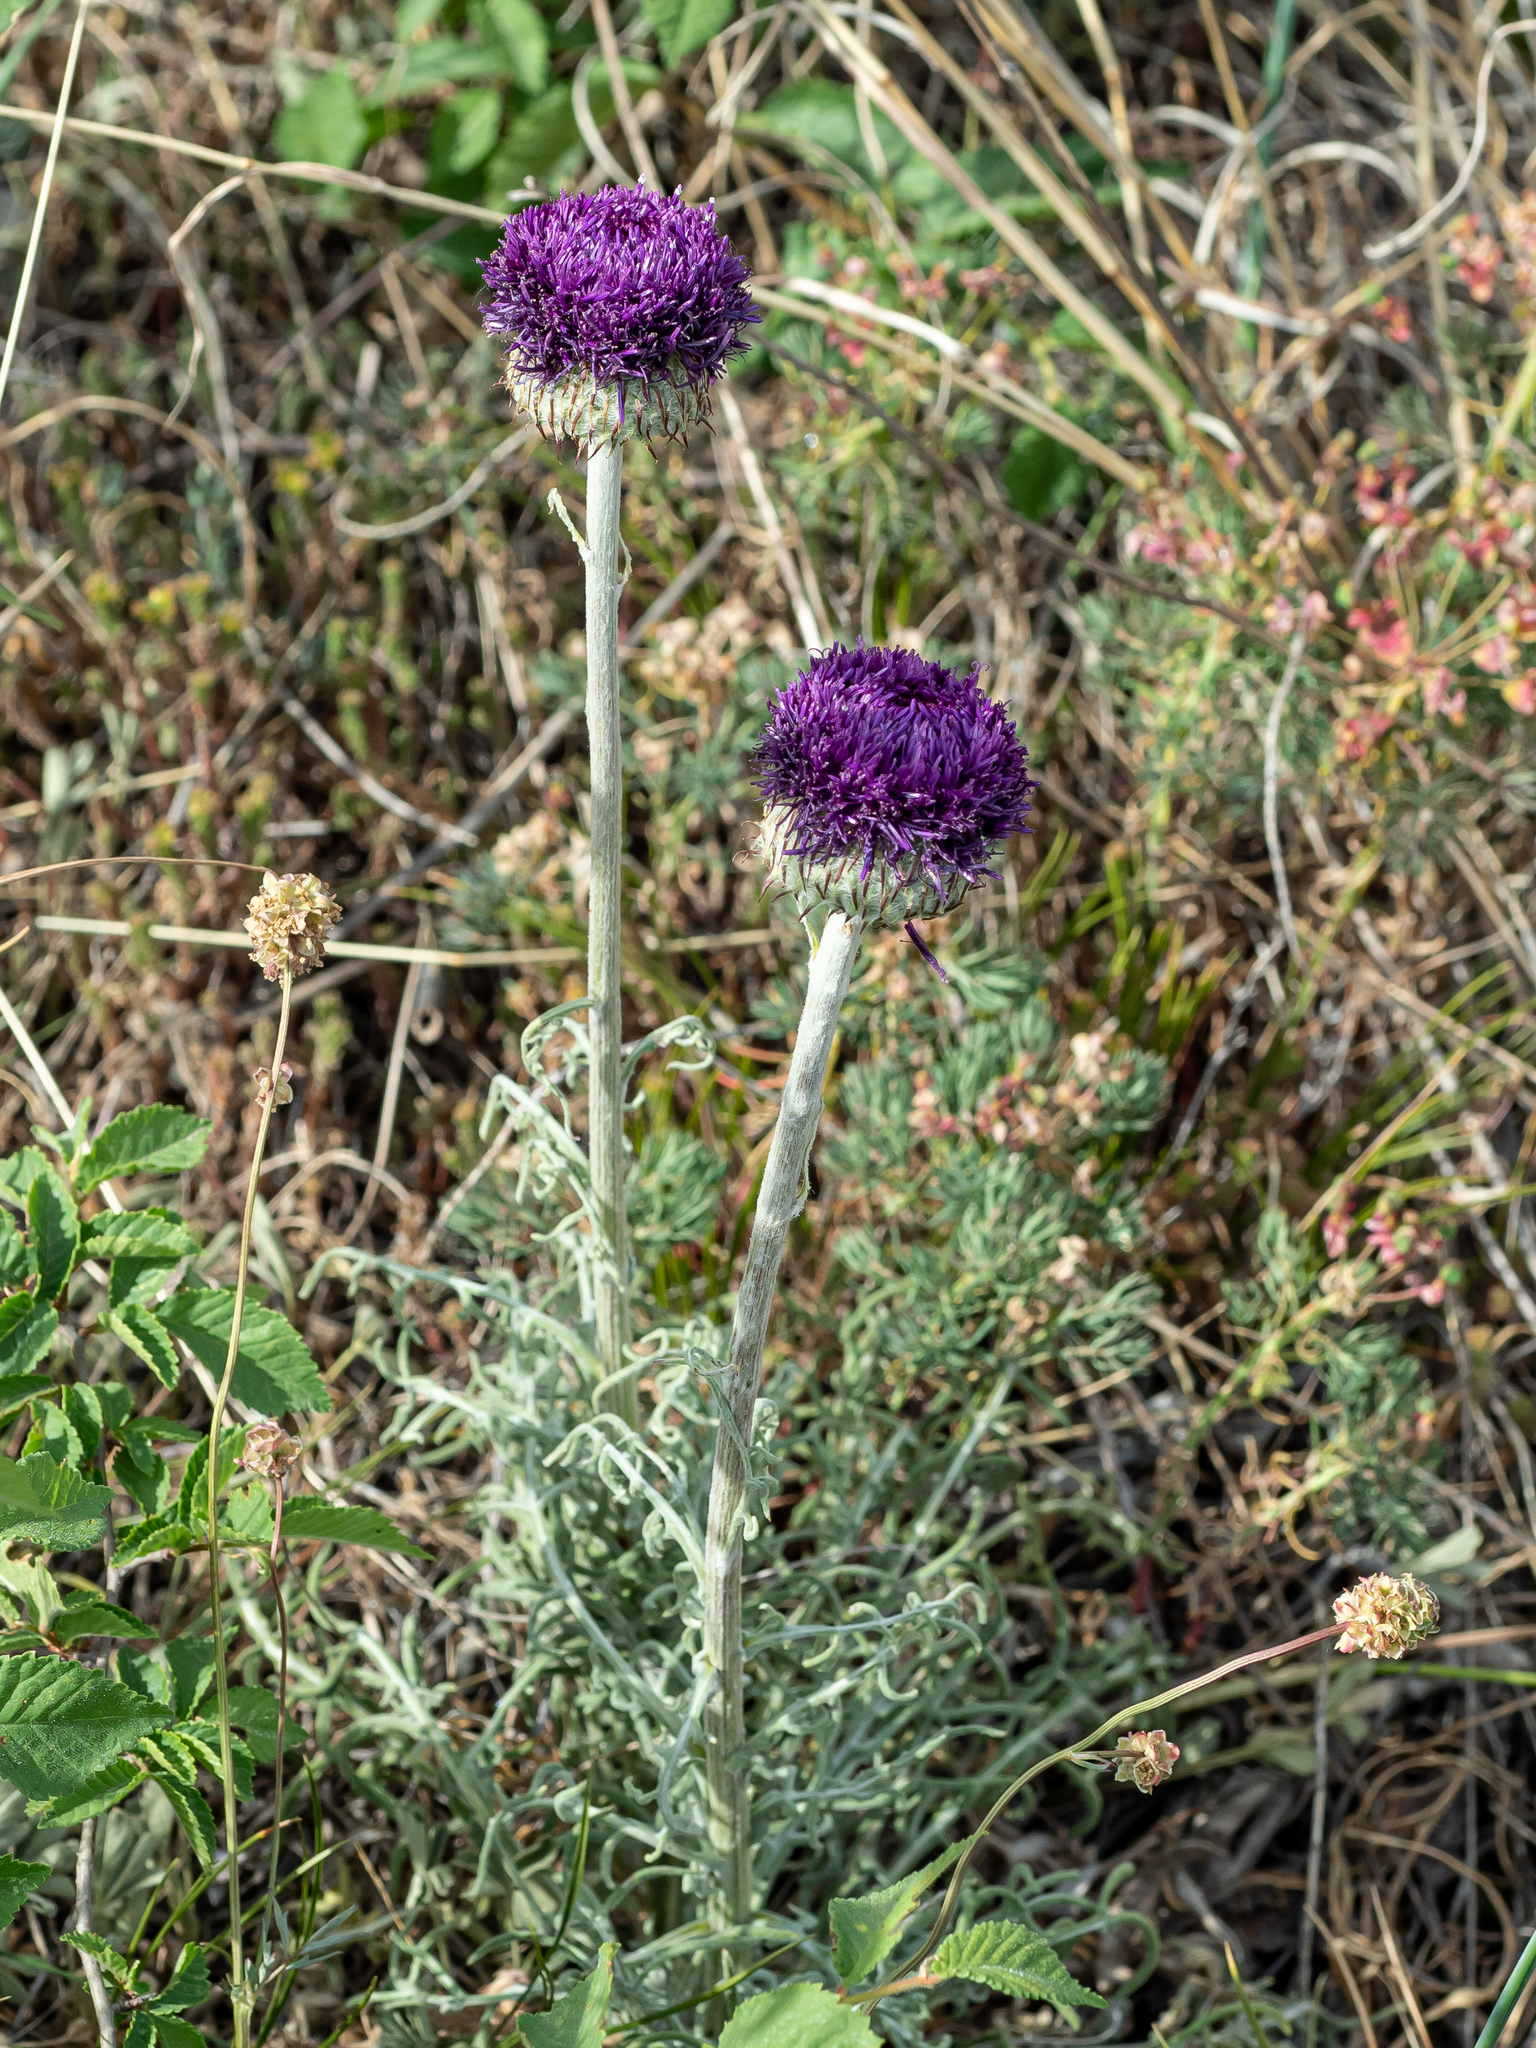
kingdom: Plantae
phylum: Tracheophyta
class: Magnoliopsida
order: Asterales
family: Asteraceae
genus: Jurinea
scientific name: Jurinea mollis
